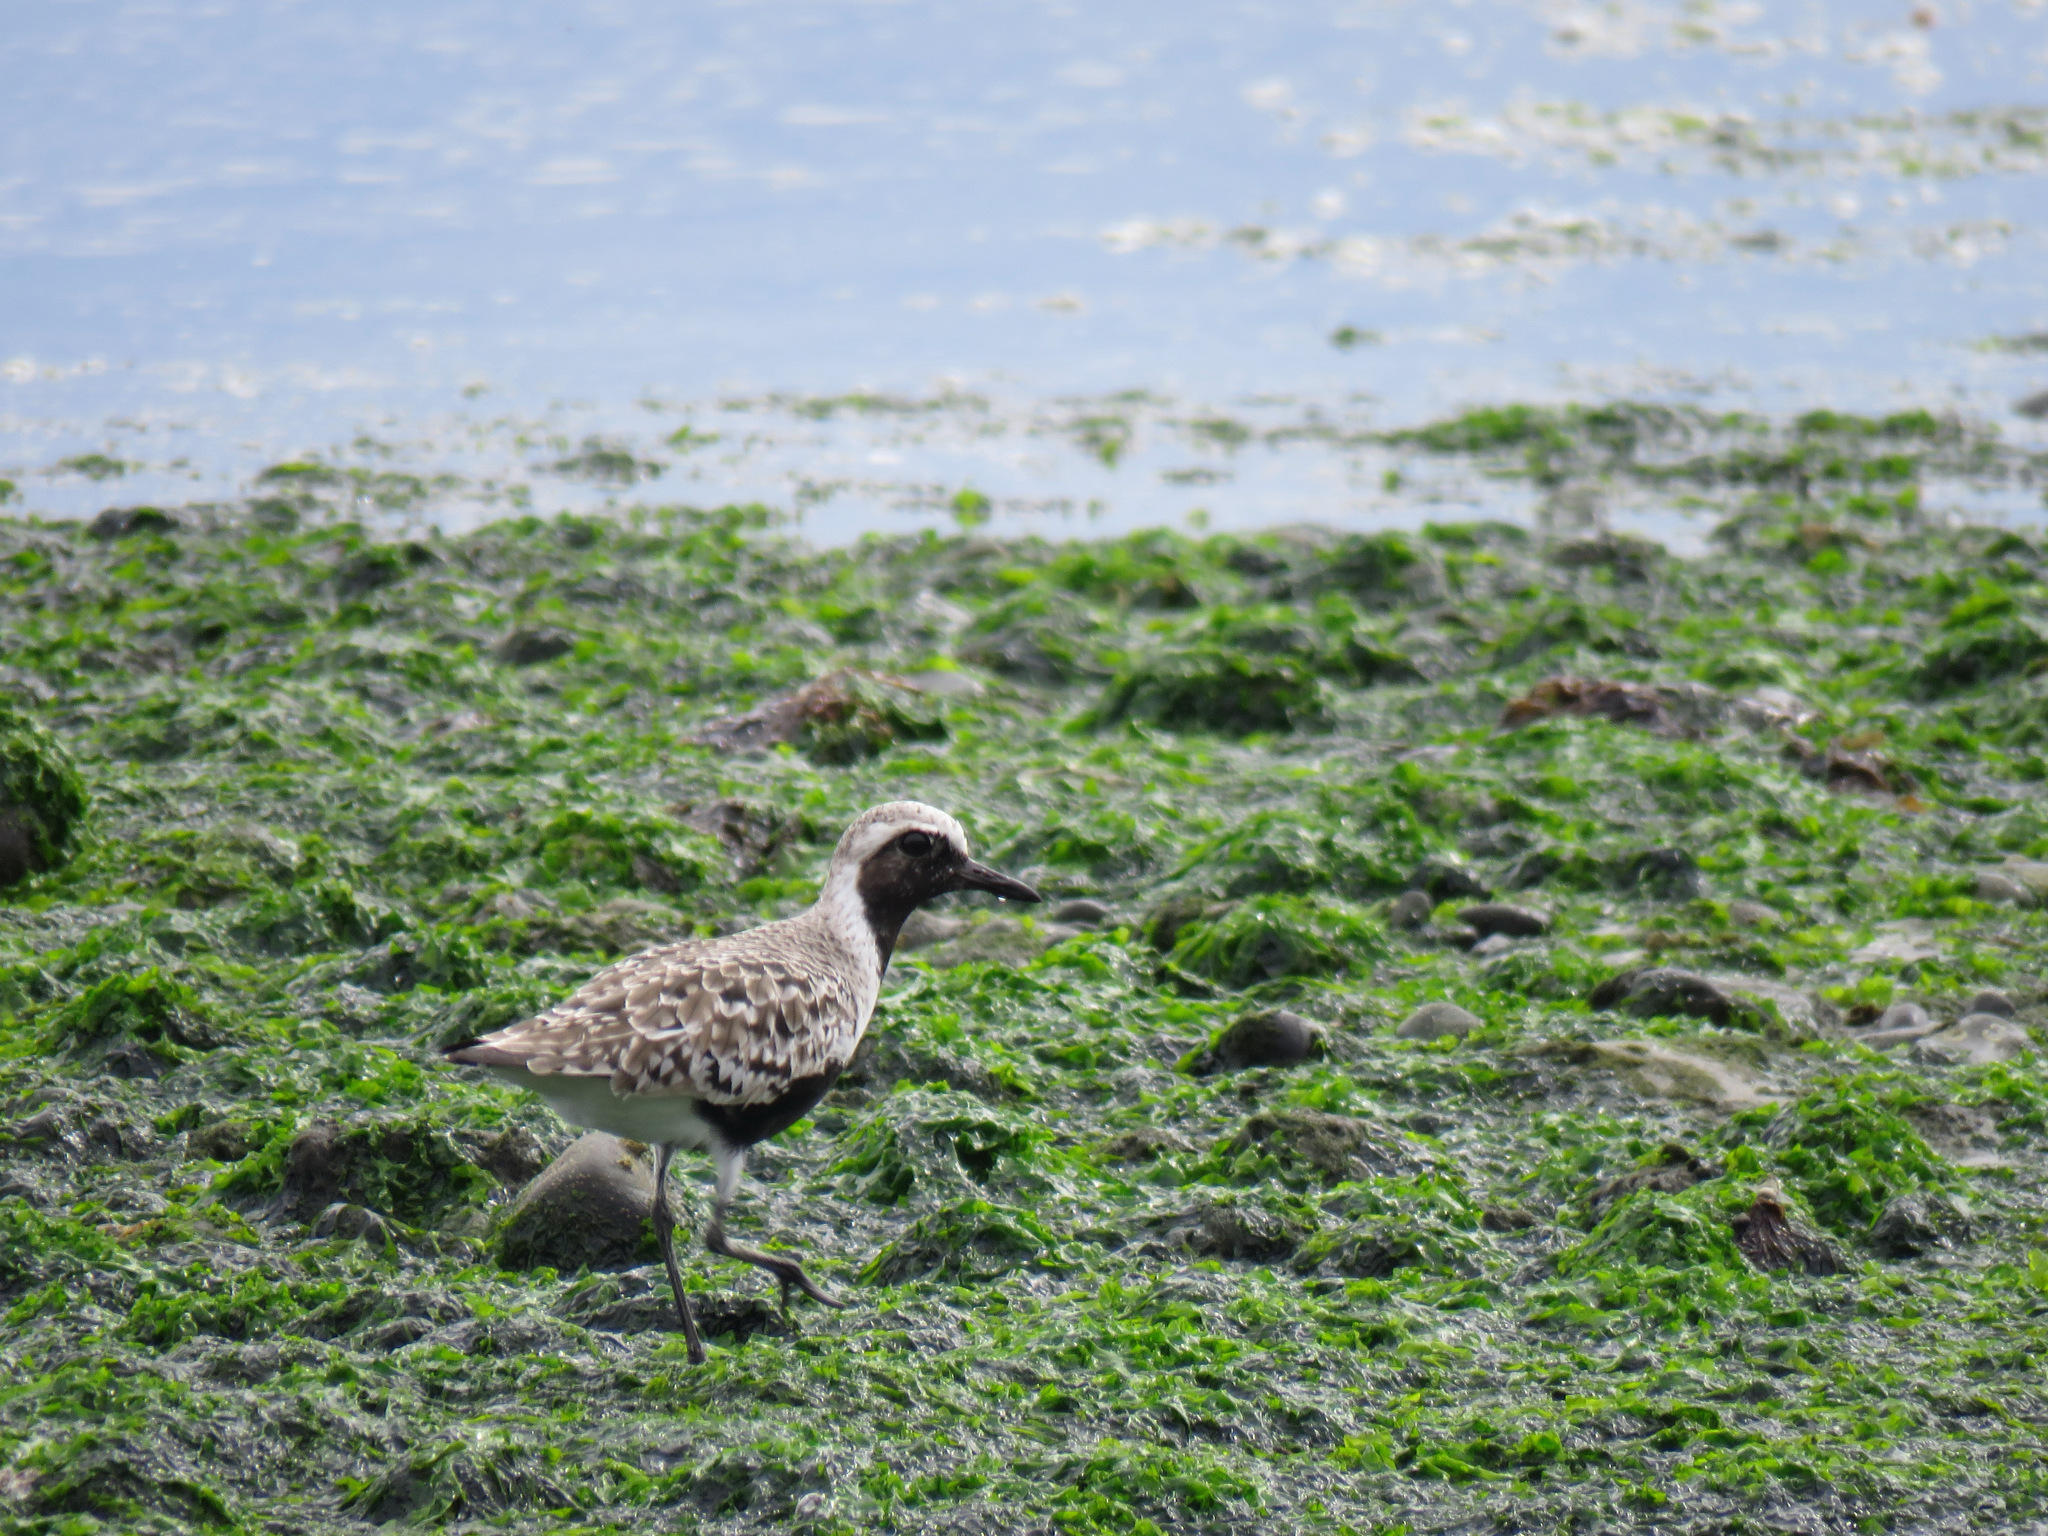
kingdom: Animalia
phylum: Chordata
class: Aves
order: Charadriiformes
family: Charadriidae
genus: Pluvialis
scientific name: Pluvialis squatarola
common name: Grey plover
